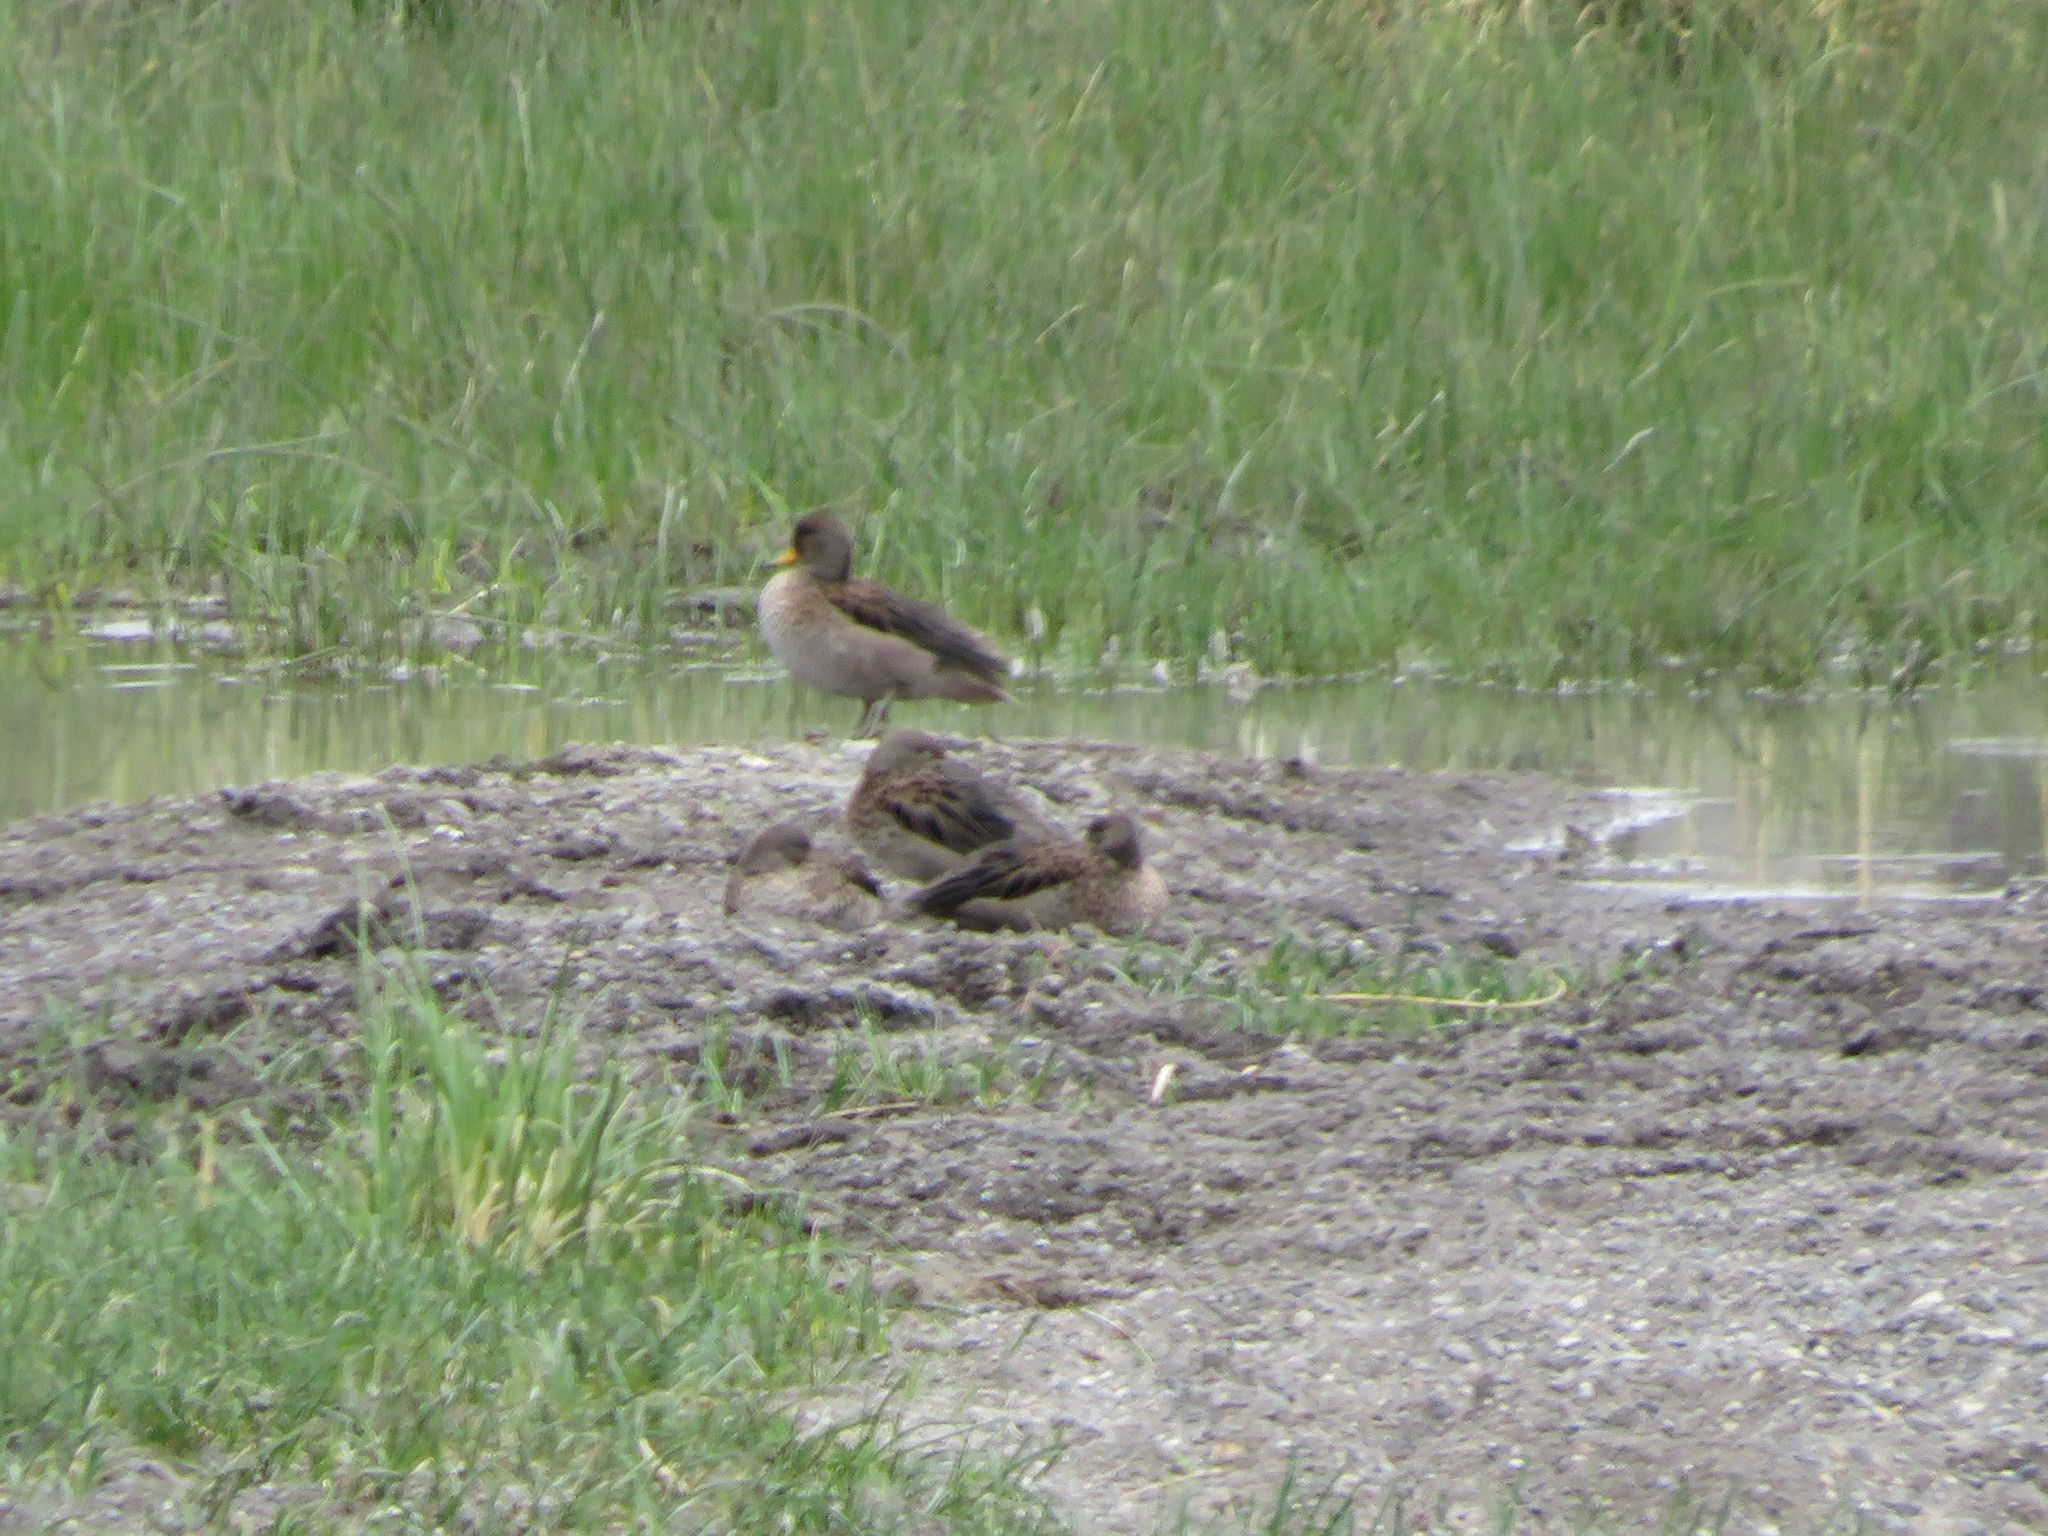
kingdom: Animalia
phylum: Chordata
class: Aves
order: Anseriformes
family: Anatidae
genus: Anas
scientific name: Anas flavirostris
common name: Yellow-billed teal
